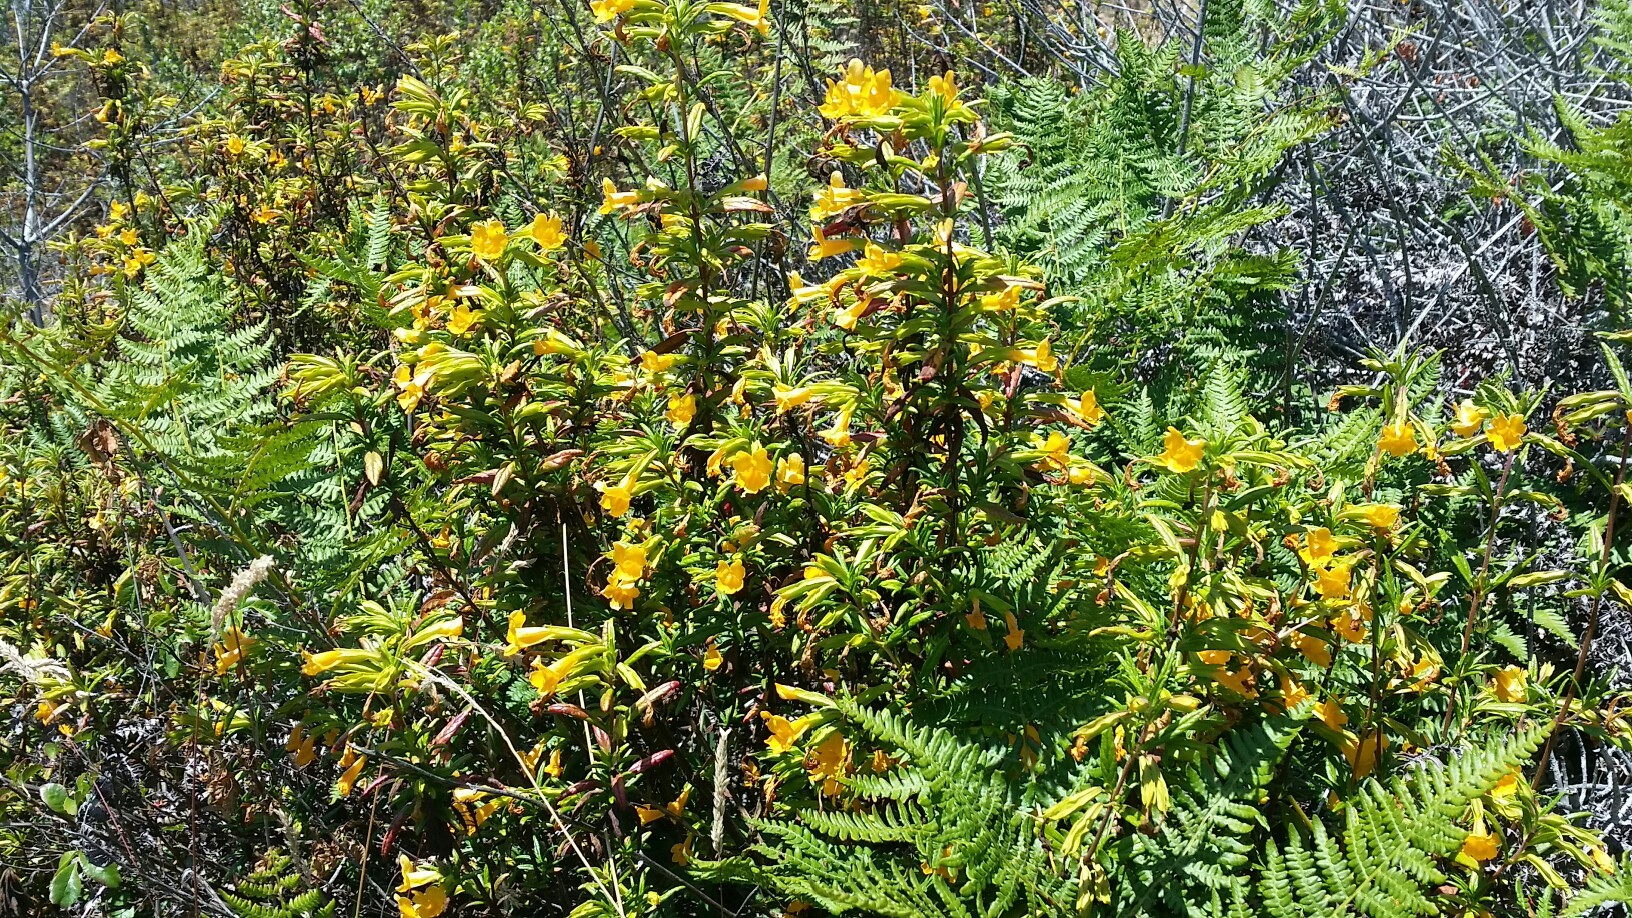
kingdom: Plantae
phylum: Tracheophyta
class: Magnoliopsida
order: Lamiales
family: Phrymaceae
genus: Diplacus
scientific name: Diplacus aurantiacus
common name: Bush monkey-flower
